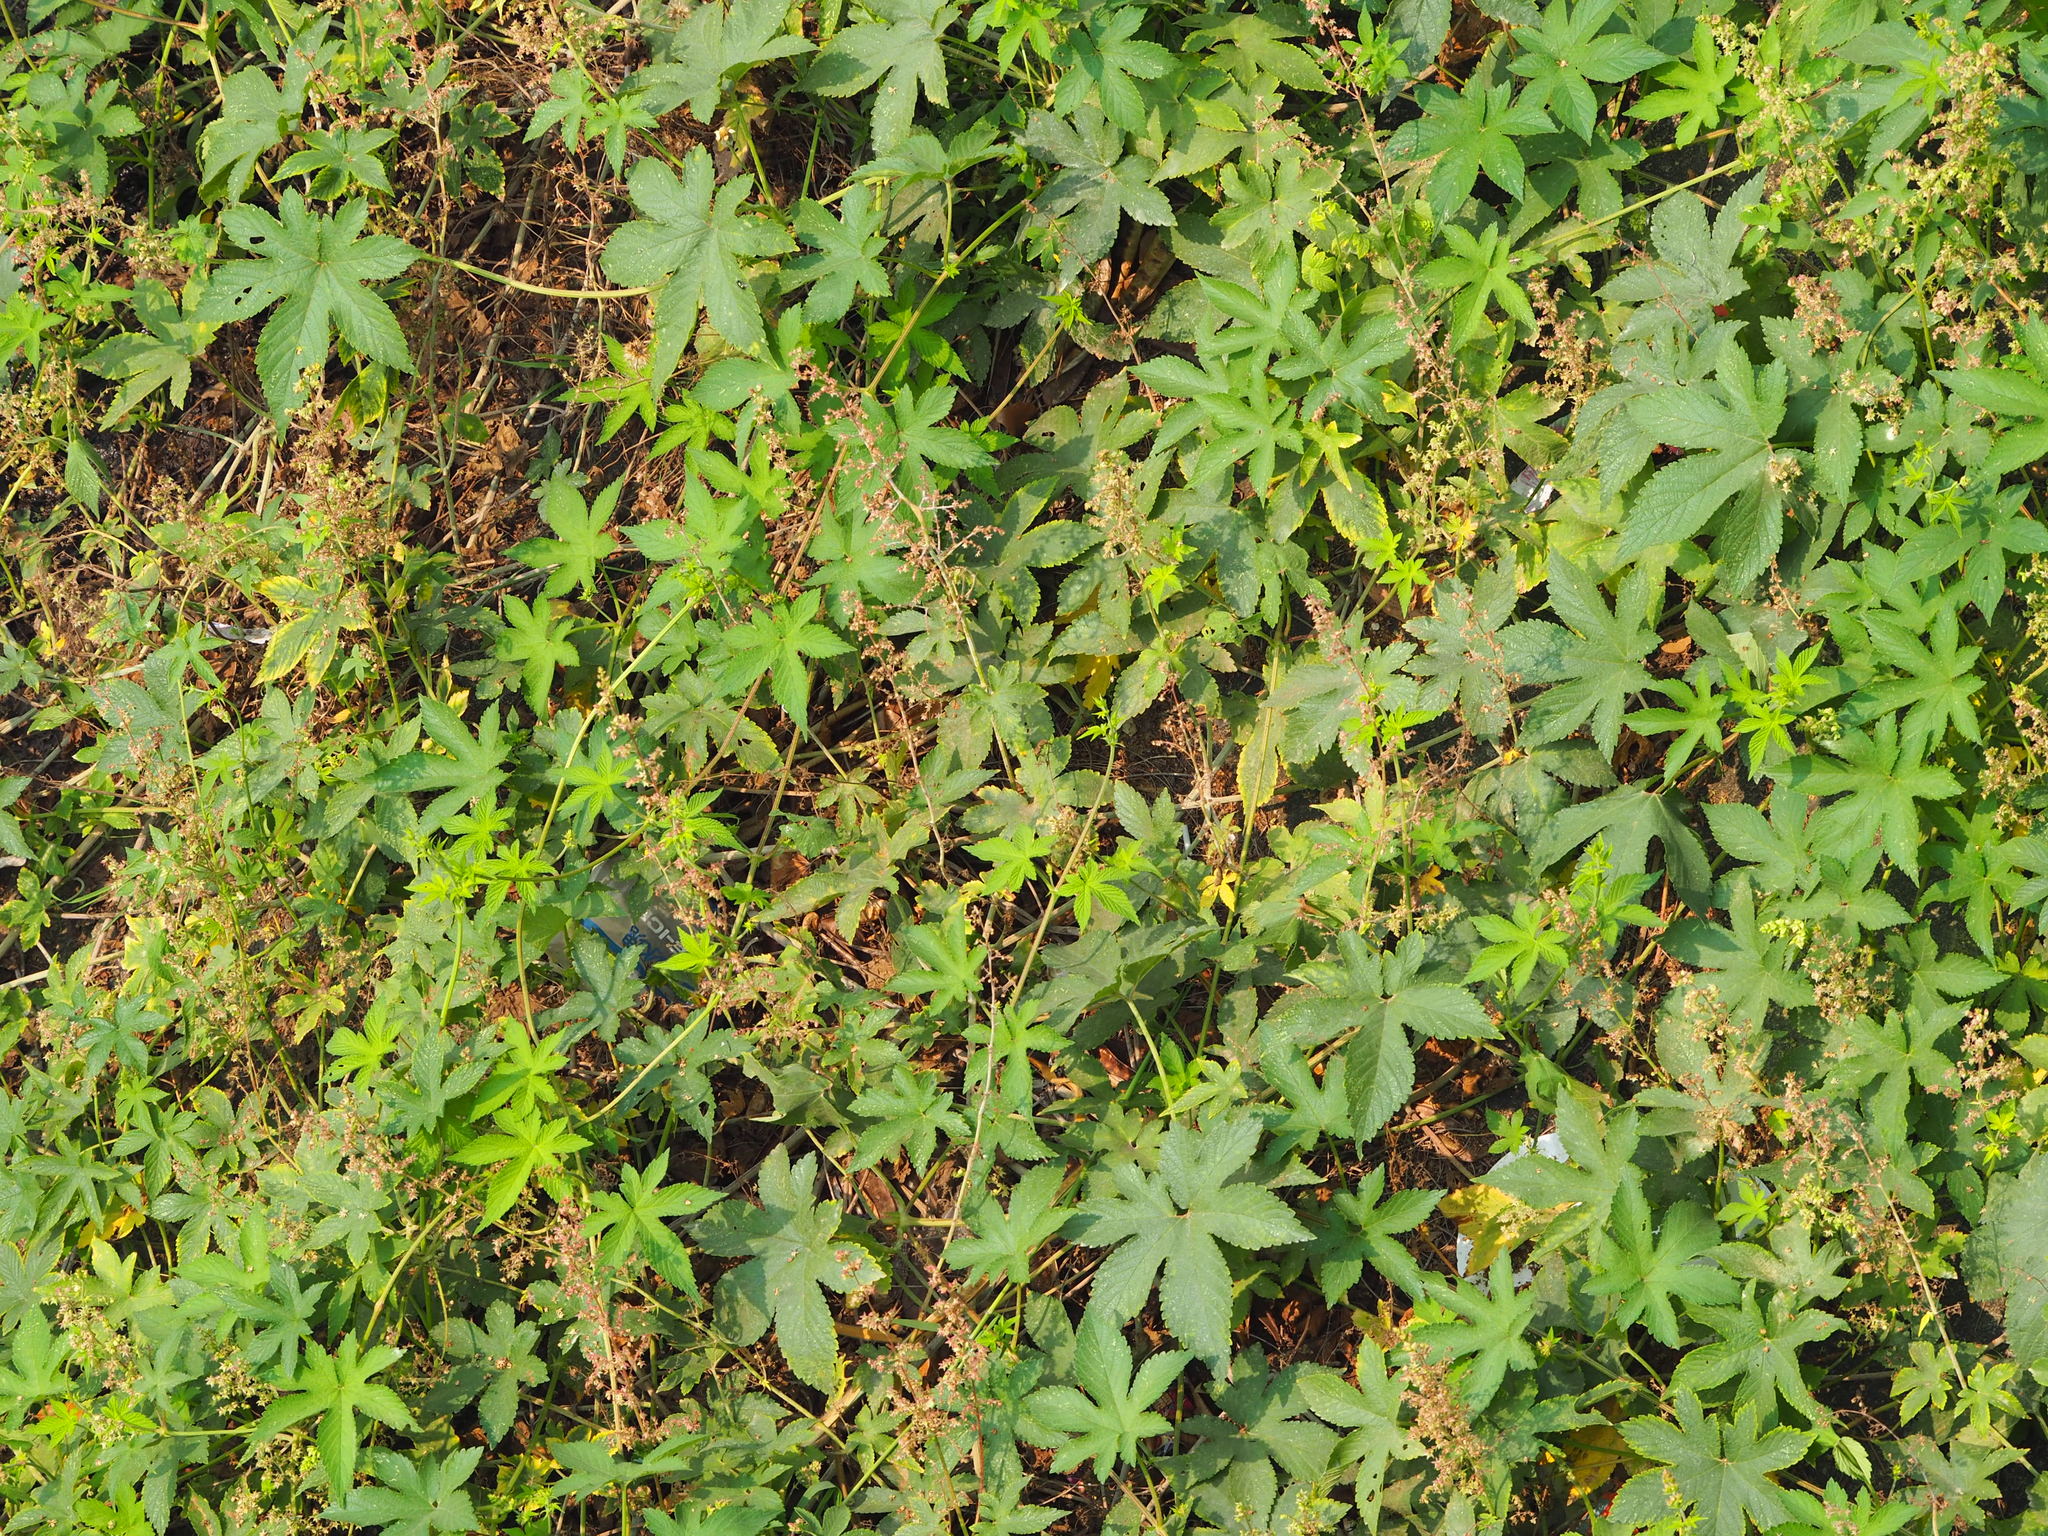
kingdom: Plantae
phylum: Tracheophyta
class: Magnoliopsida
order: Rosales
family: Cannabaceae
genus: Humulus
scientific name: Humulus scandens
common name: Japanese hop
